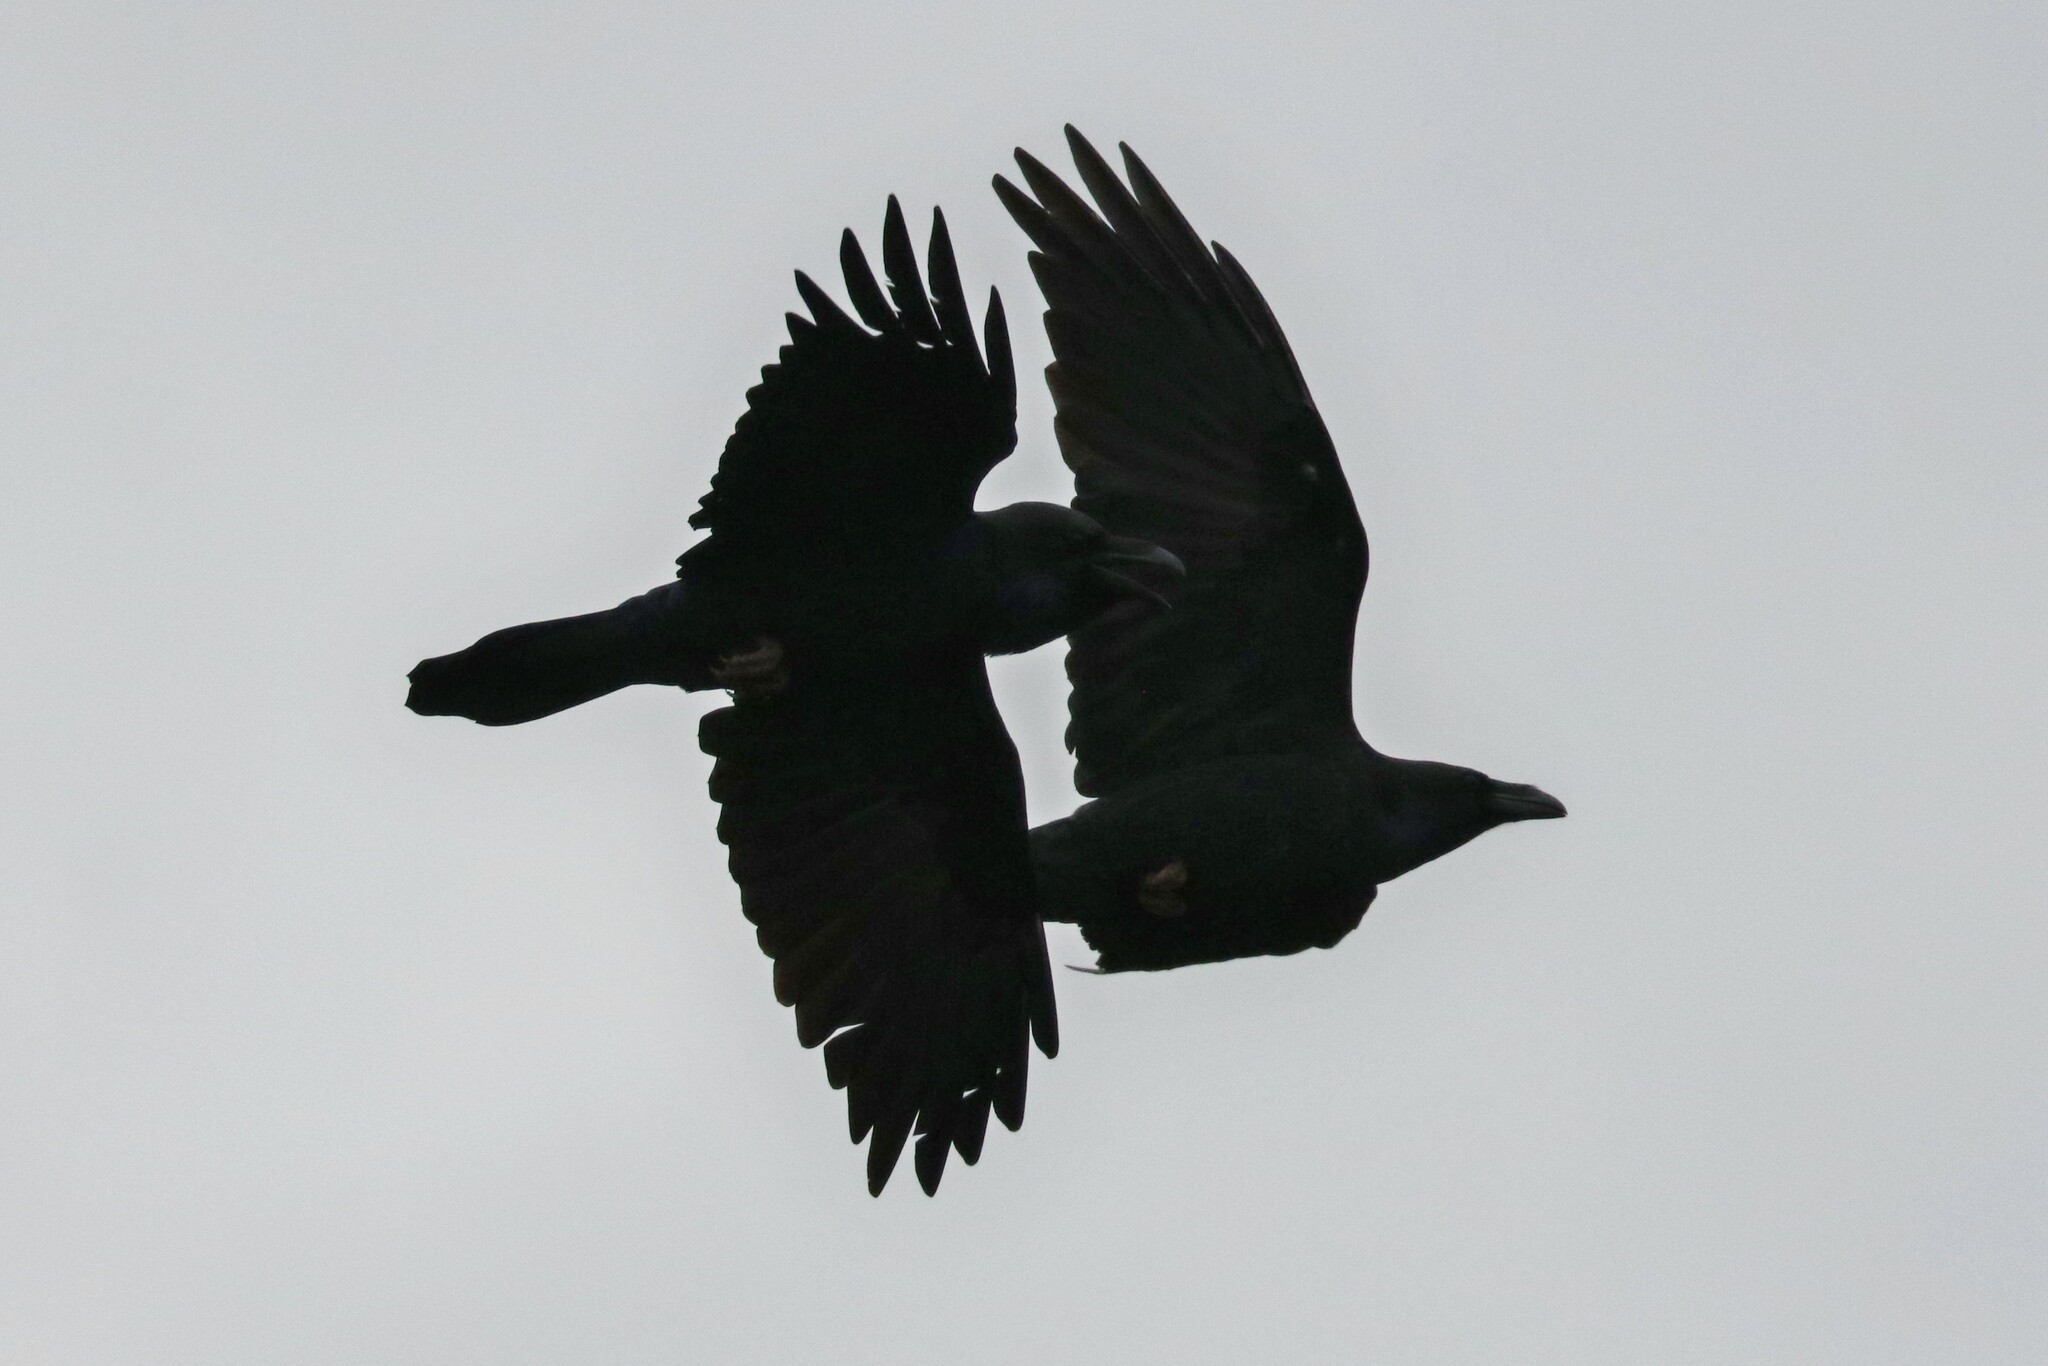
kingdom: Animalia
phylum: Chordata
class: Aves
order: Passeriformes
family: Corvidae
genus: Corvus
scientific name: Corvus corax
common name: Common raven
